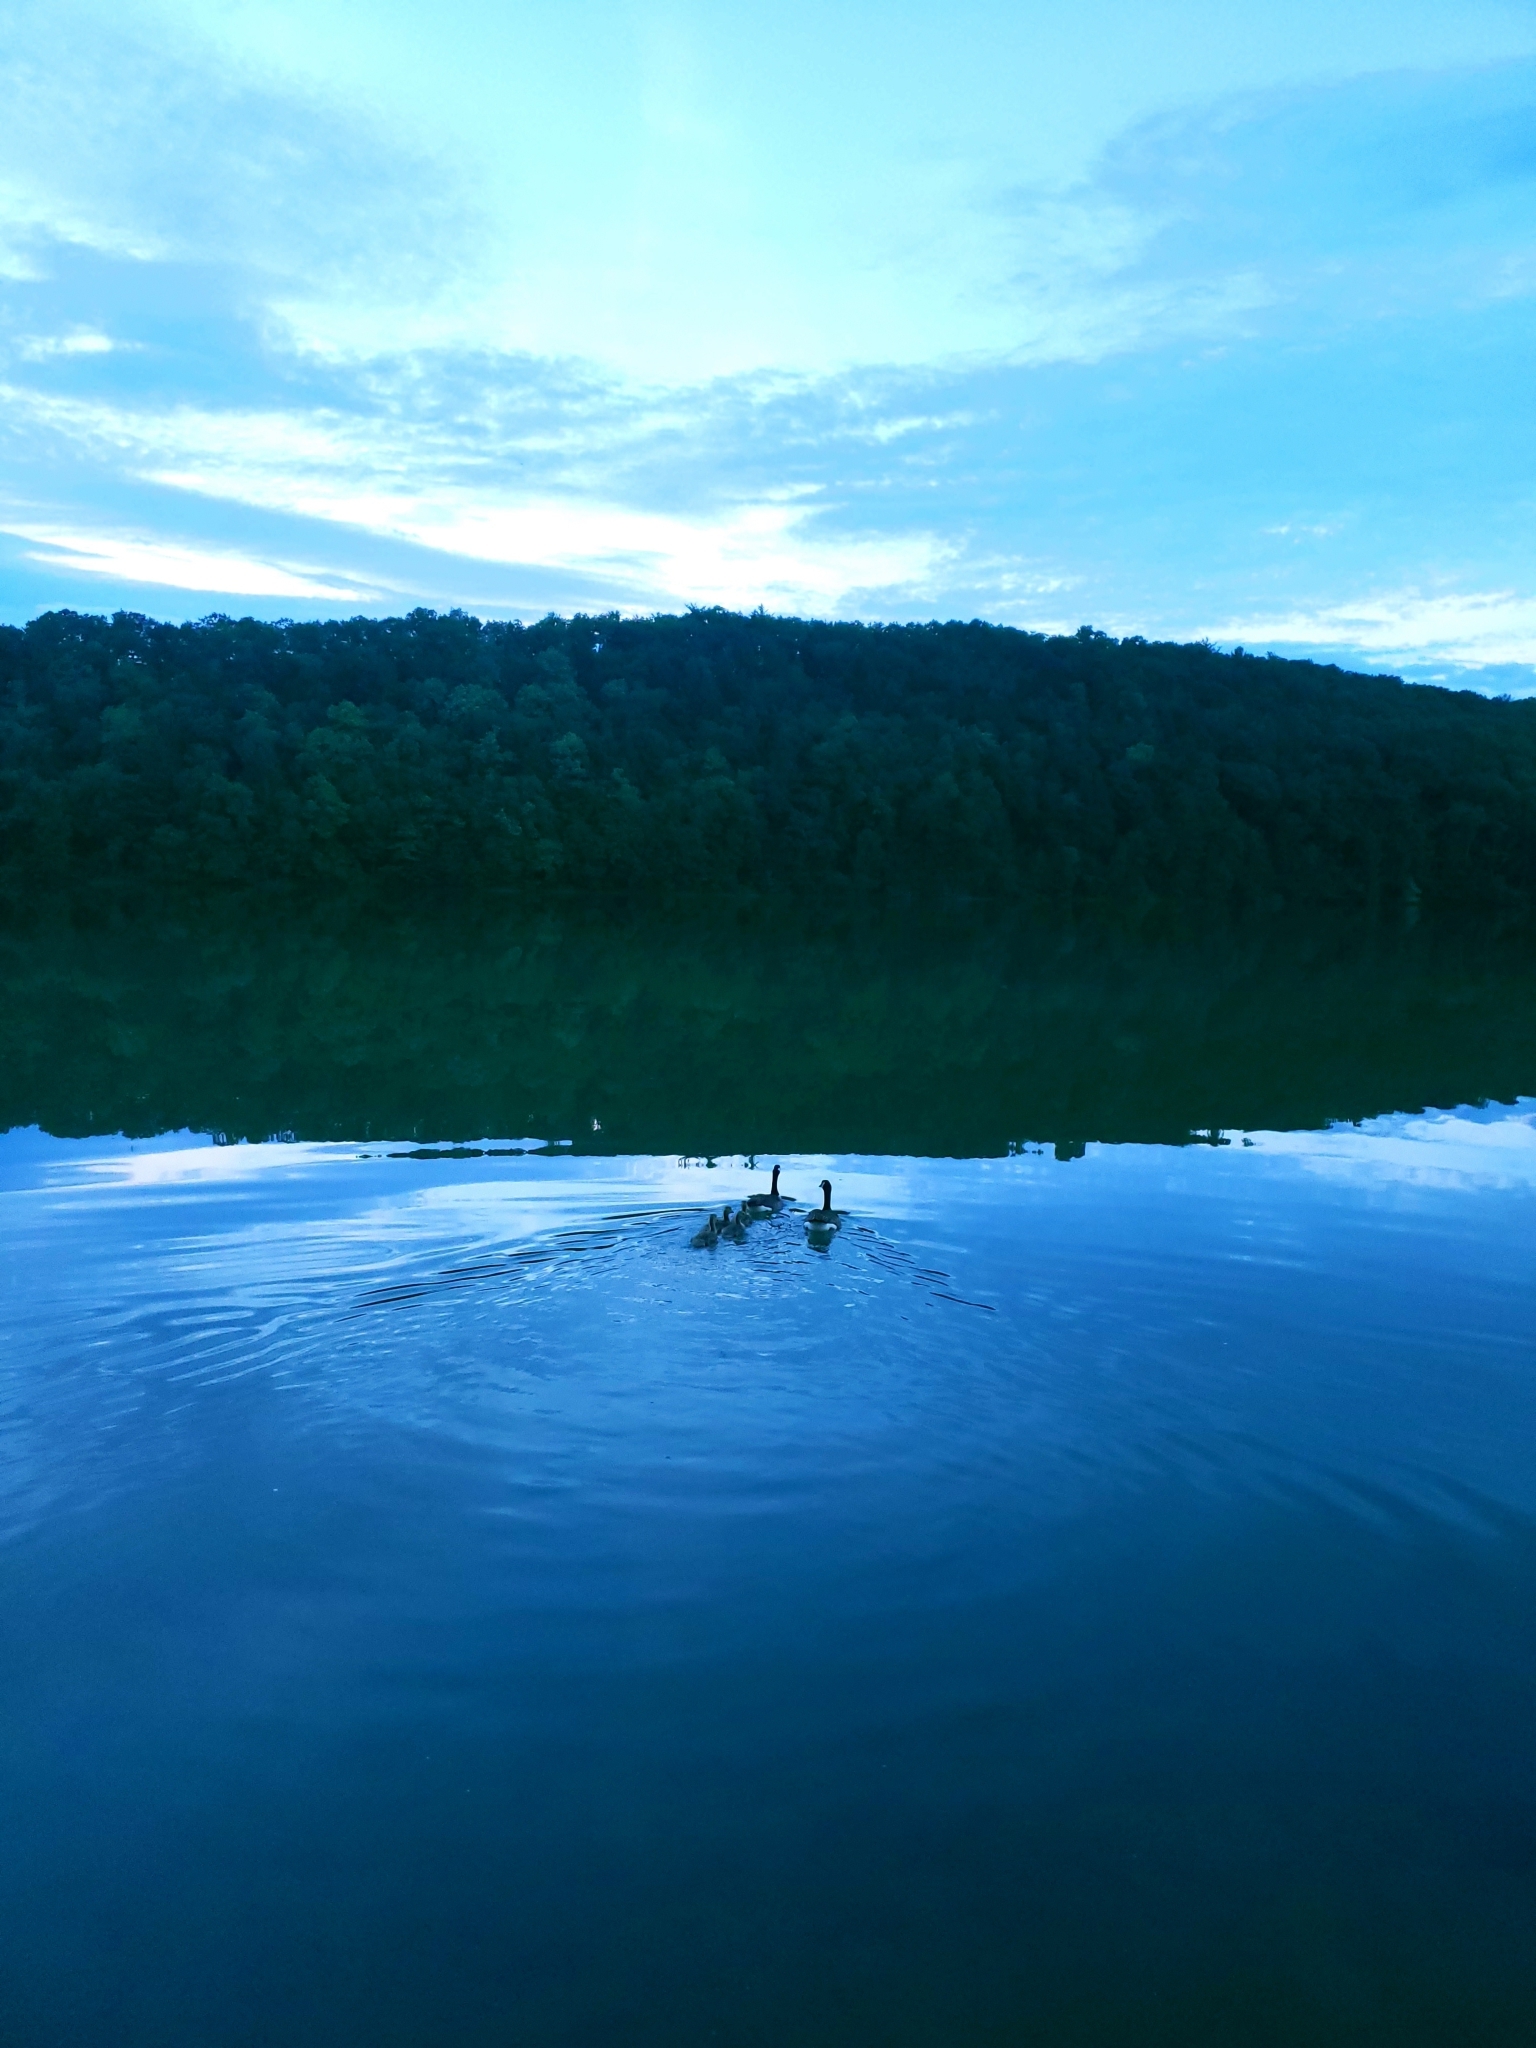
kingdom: Animalia
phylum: Chordata
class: Aves
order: Anseriformes
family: Anatidae
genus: Branta
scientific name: Branta canadensis
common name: Canada goose
